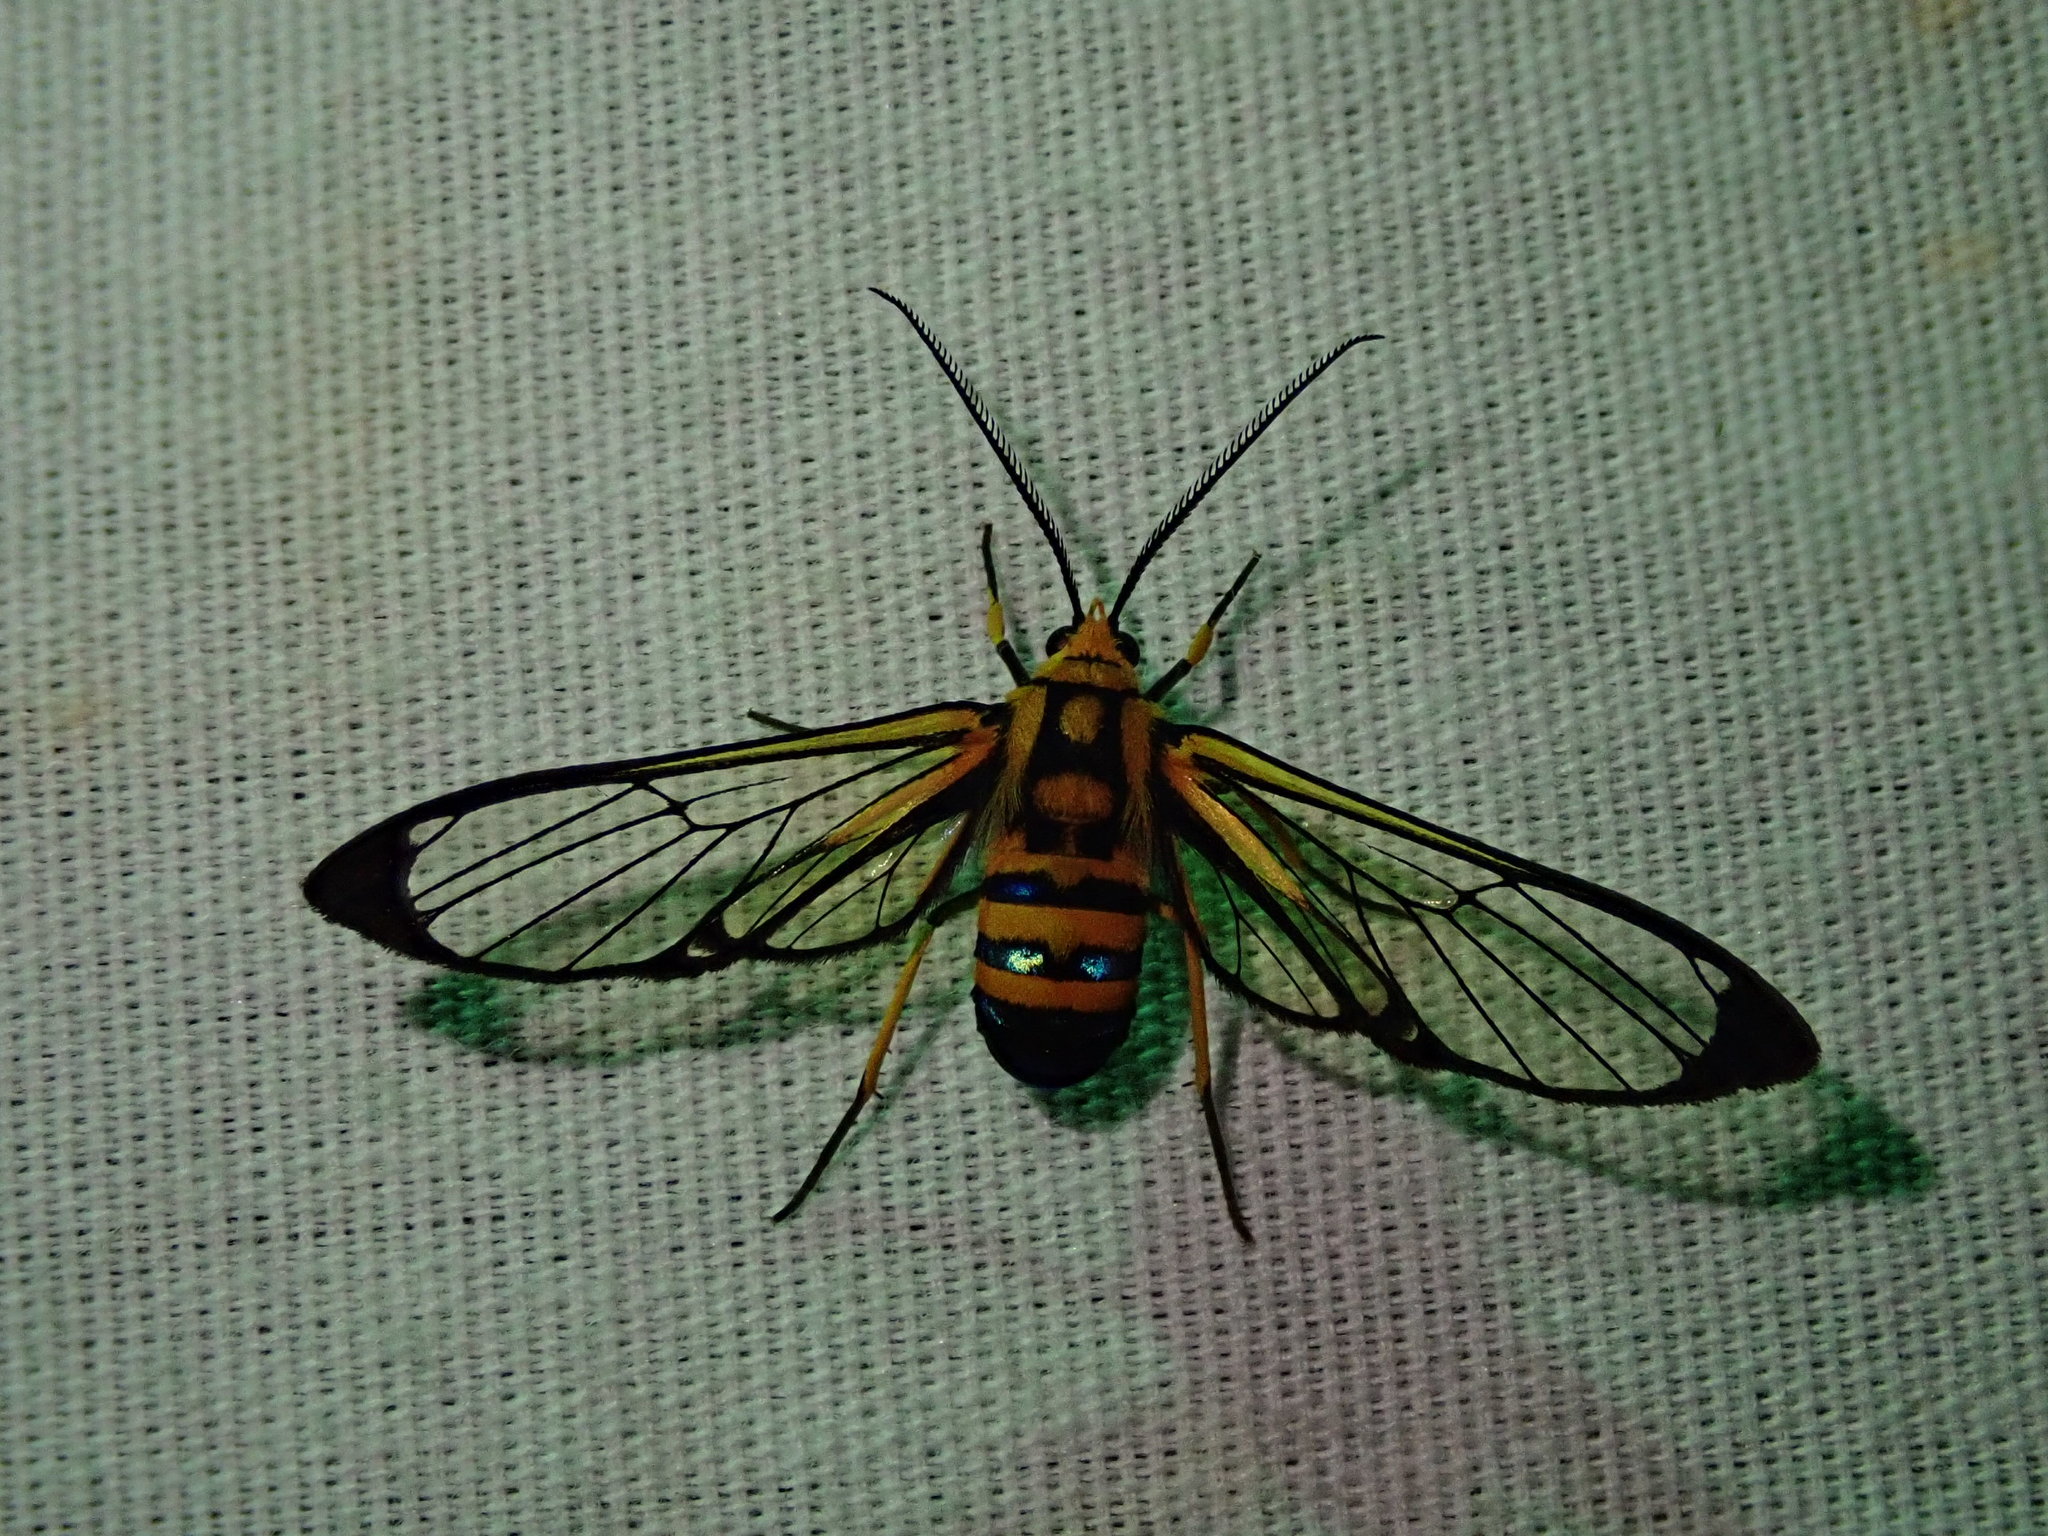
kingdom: Animalia
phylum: Arthropoda
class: Insecta
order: Lepidoptera
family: Erebidae
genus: Mesothen
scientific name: Mesothen nomia
